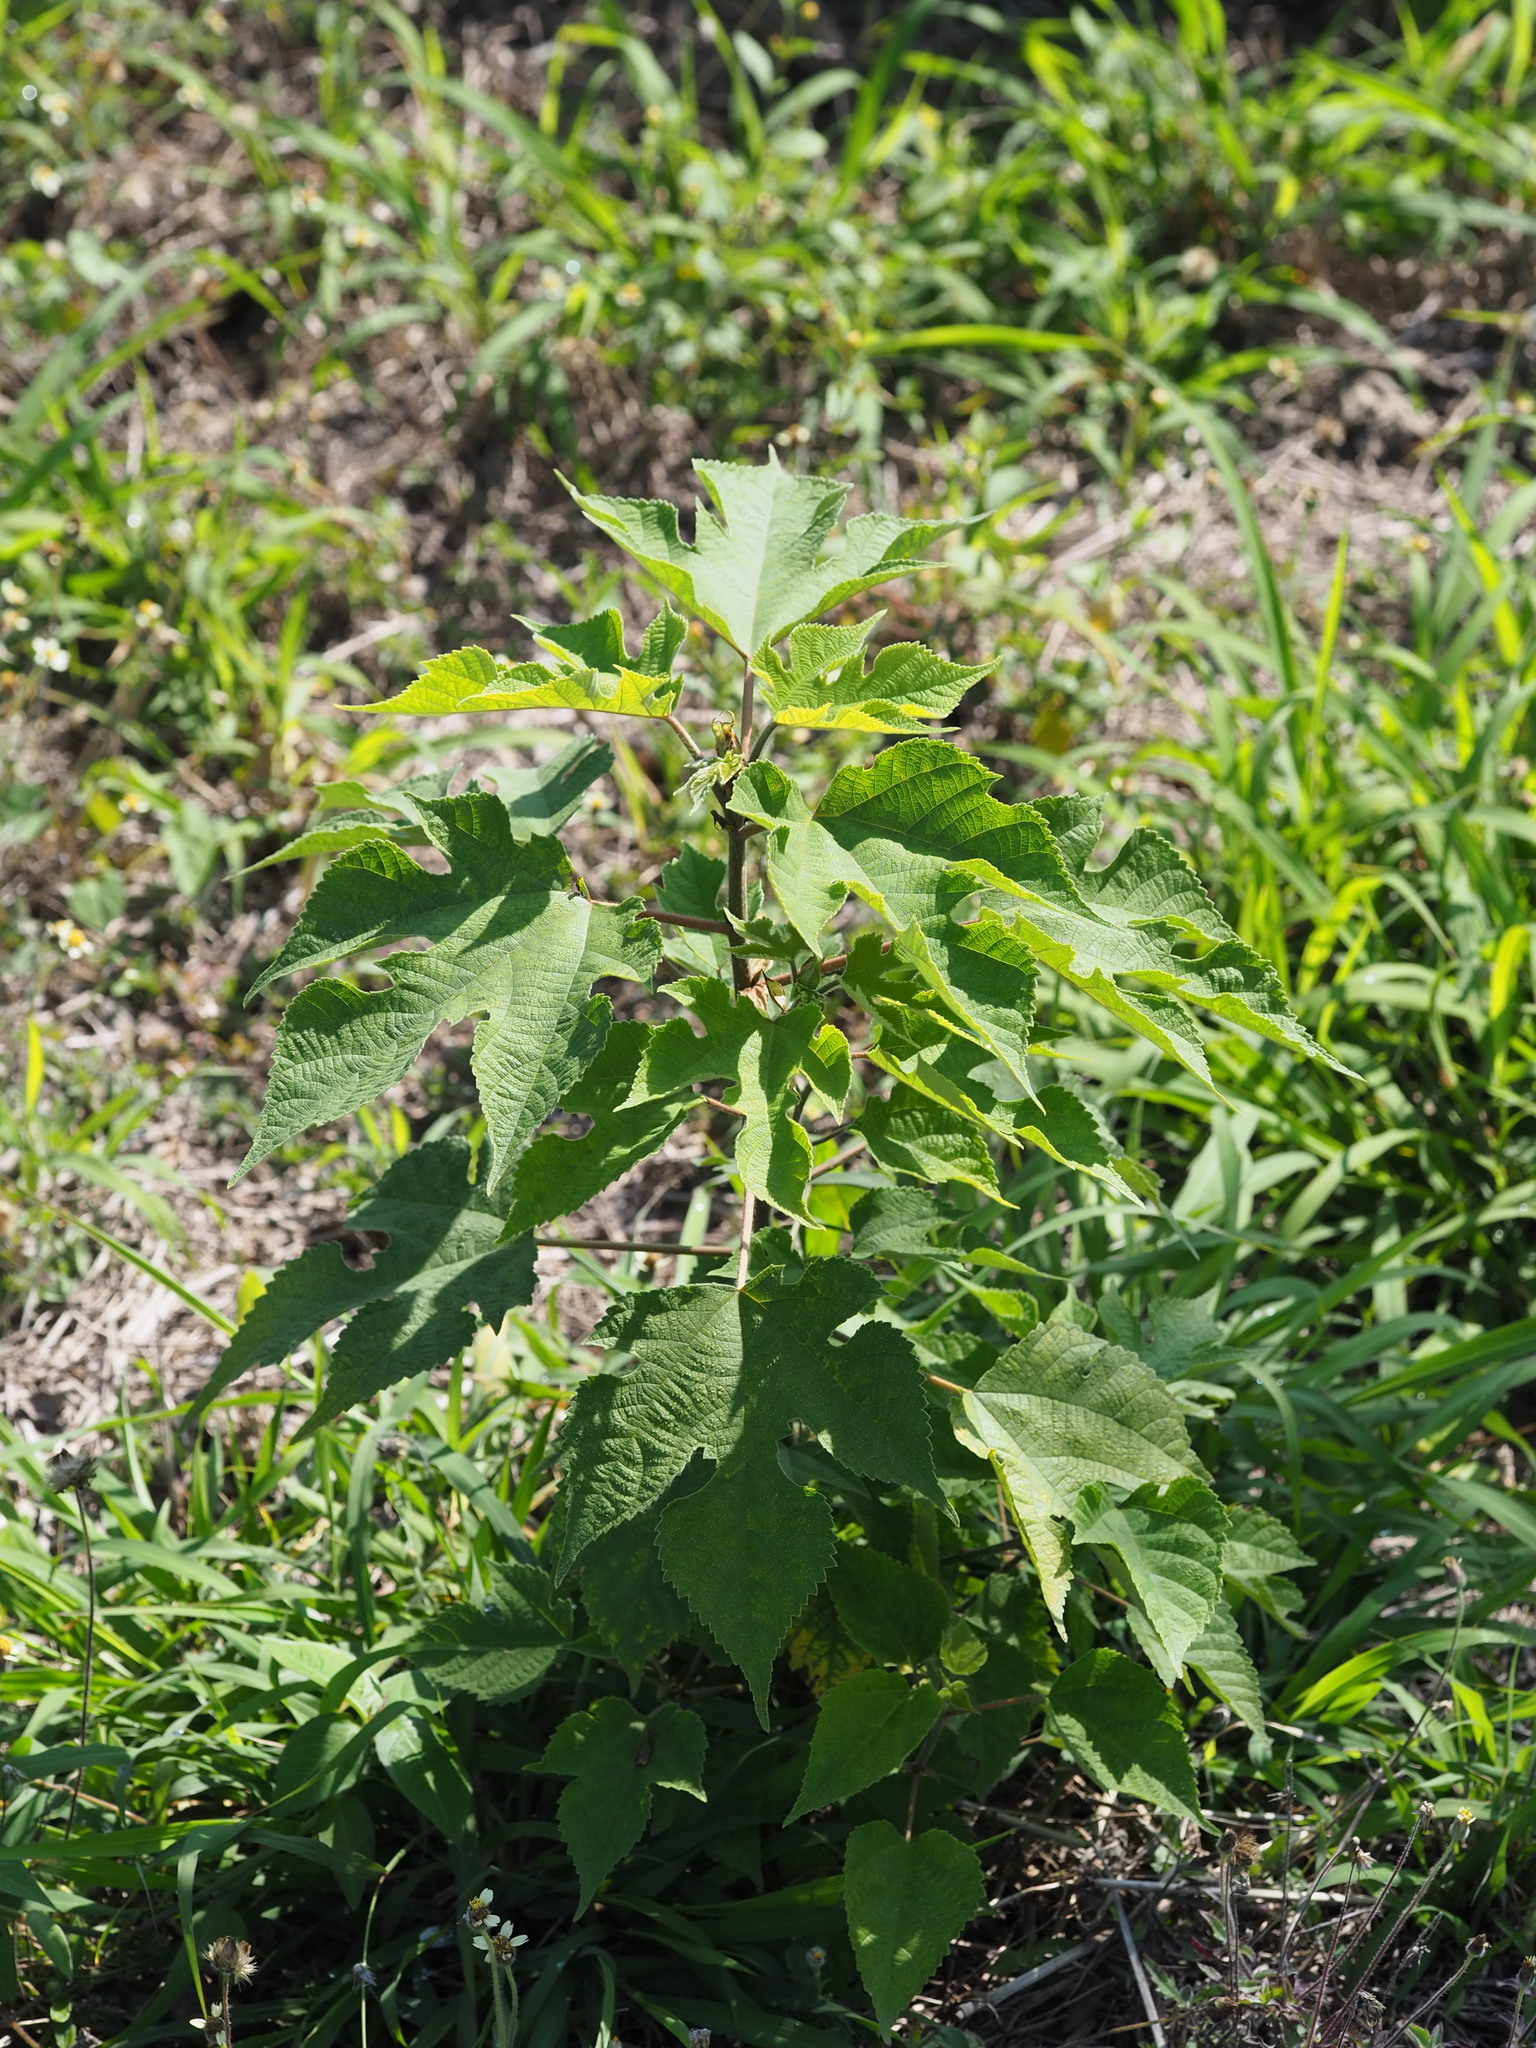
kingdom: Plantae
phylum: Tracheophyta
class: Magnoliopsida
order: Rosales
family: Moraceae
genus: Broussonetia
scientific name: Broussonetia papyrifera
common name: Paper mulberry
